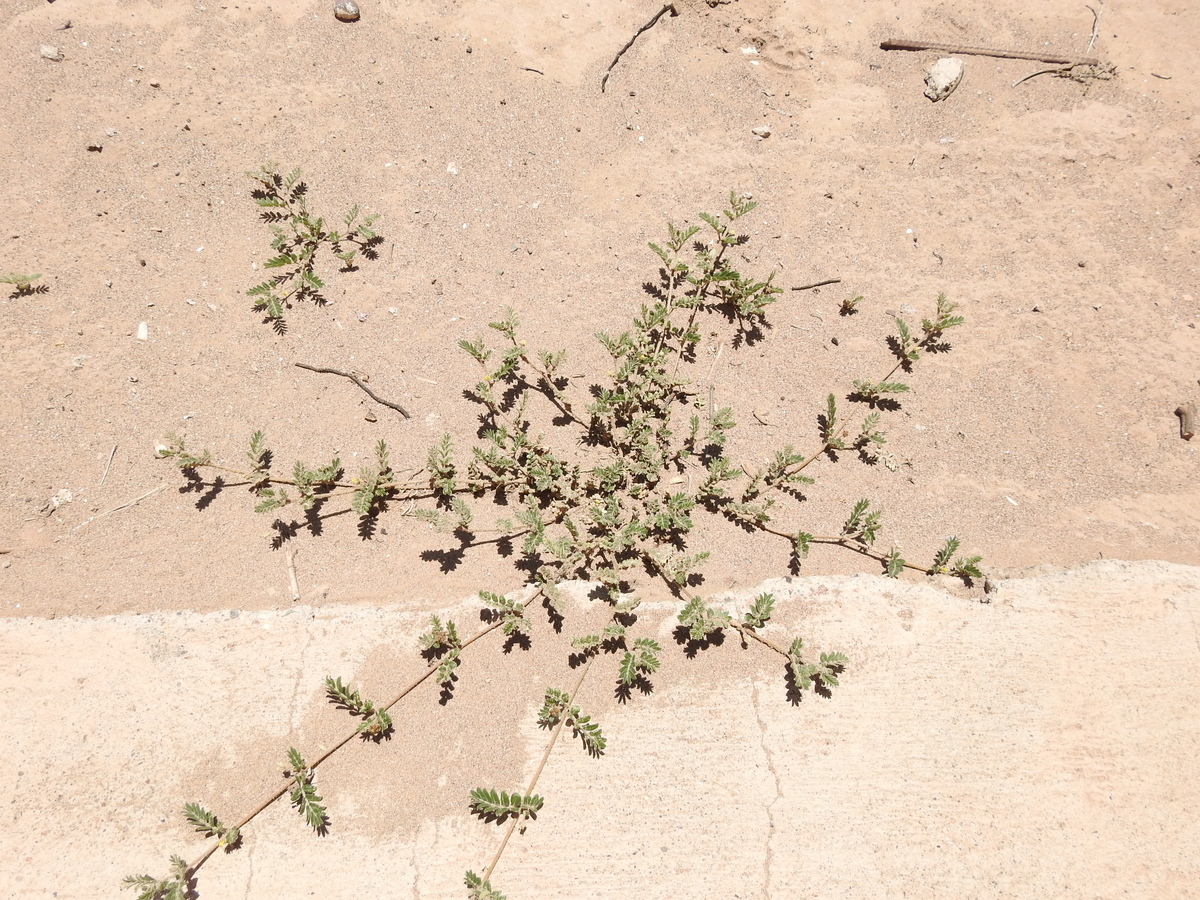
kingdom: Plantae
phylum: Tracheophyta
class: Magnoliopsida
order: Zygophyllales
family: Zygophyllaceae
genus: Tribulus
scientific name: Tribulus terrestris
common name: Puncturevine
